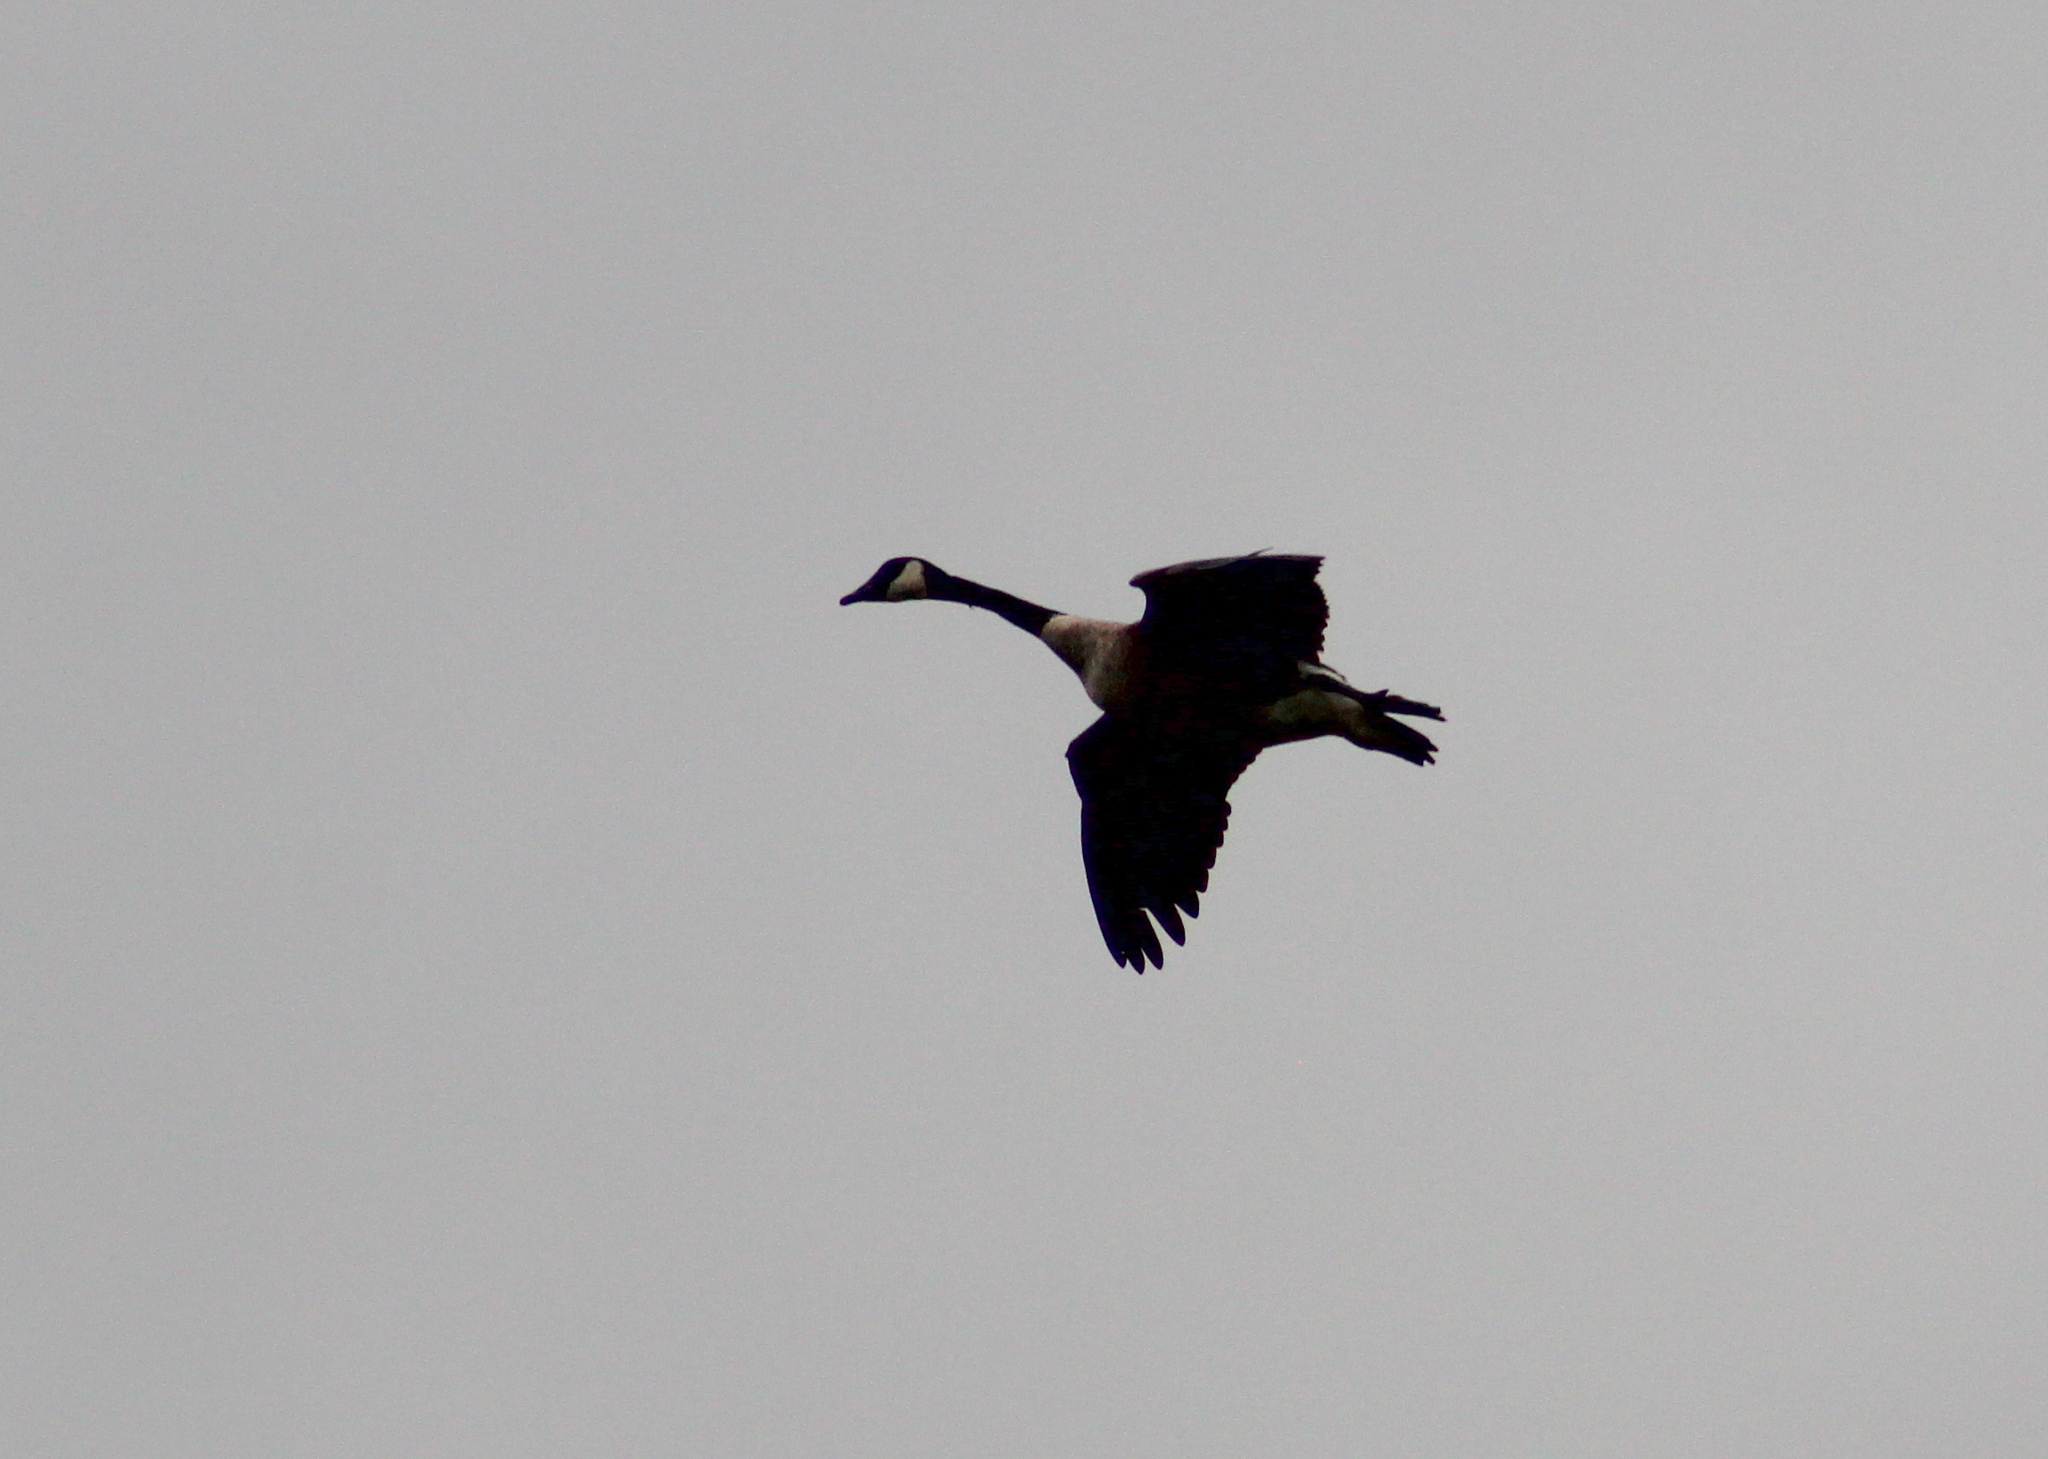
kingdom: Animalia
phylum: Chordata
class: Aves
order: Anseriformes
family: Anatidae
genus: Branta
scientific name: Branta canadensis
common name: Canada goose
